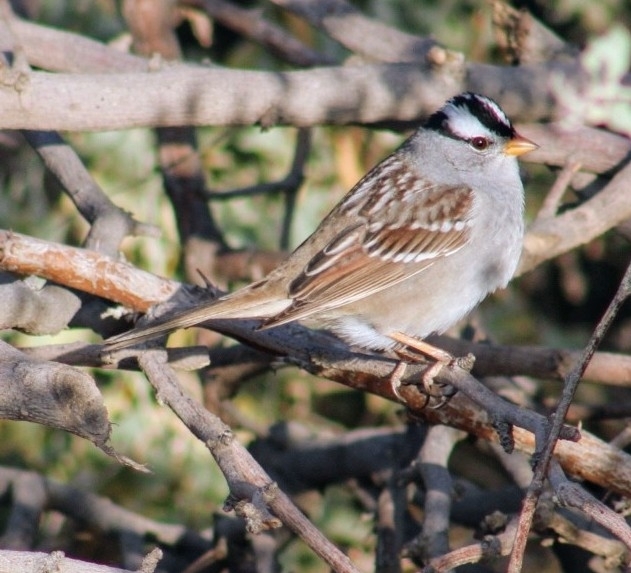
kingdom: Animalia
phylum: Chordata
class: Aves
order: Passeriformes
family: Passerellidae
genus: Zonotrichia
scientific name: Zonotrichia leucophrys
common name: White-crowned sparrow
